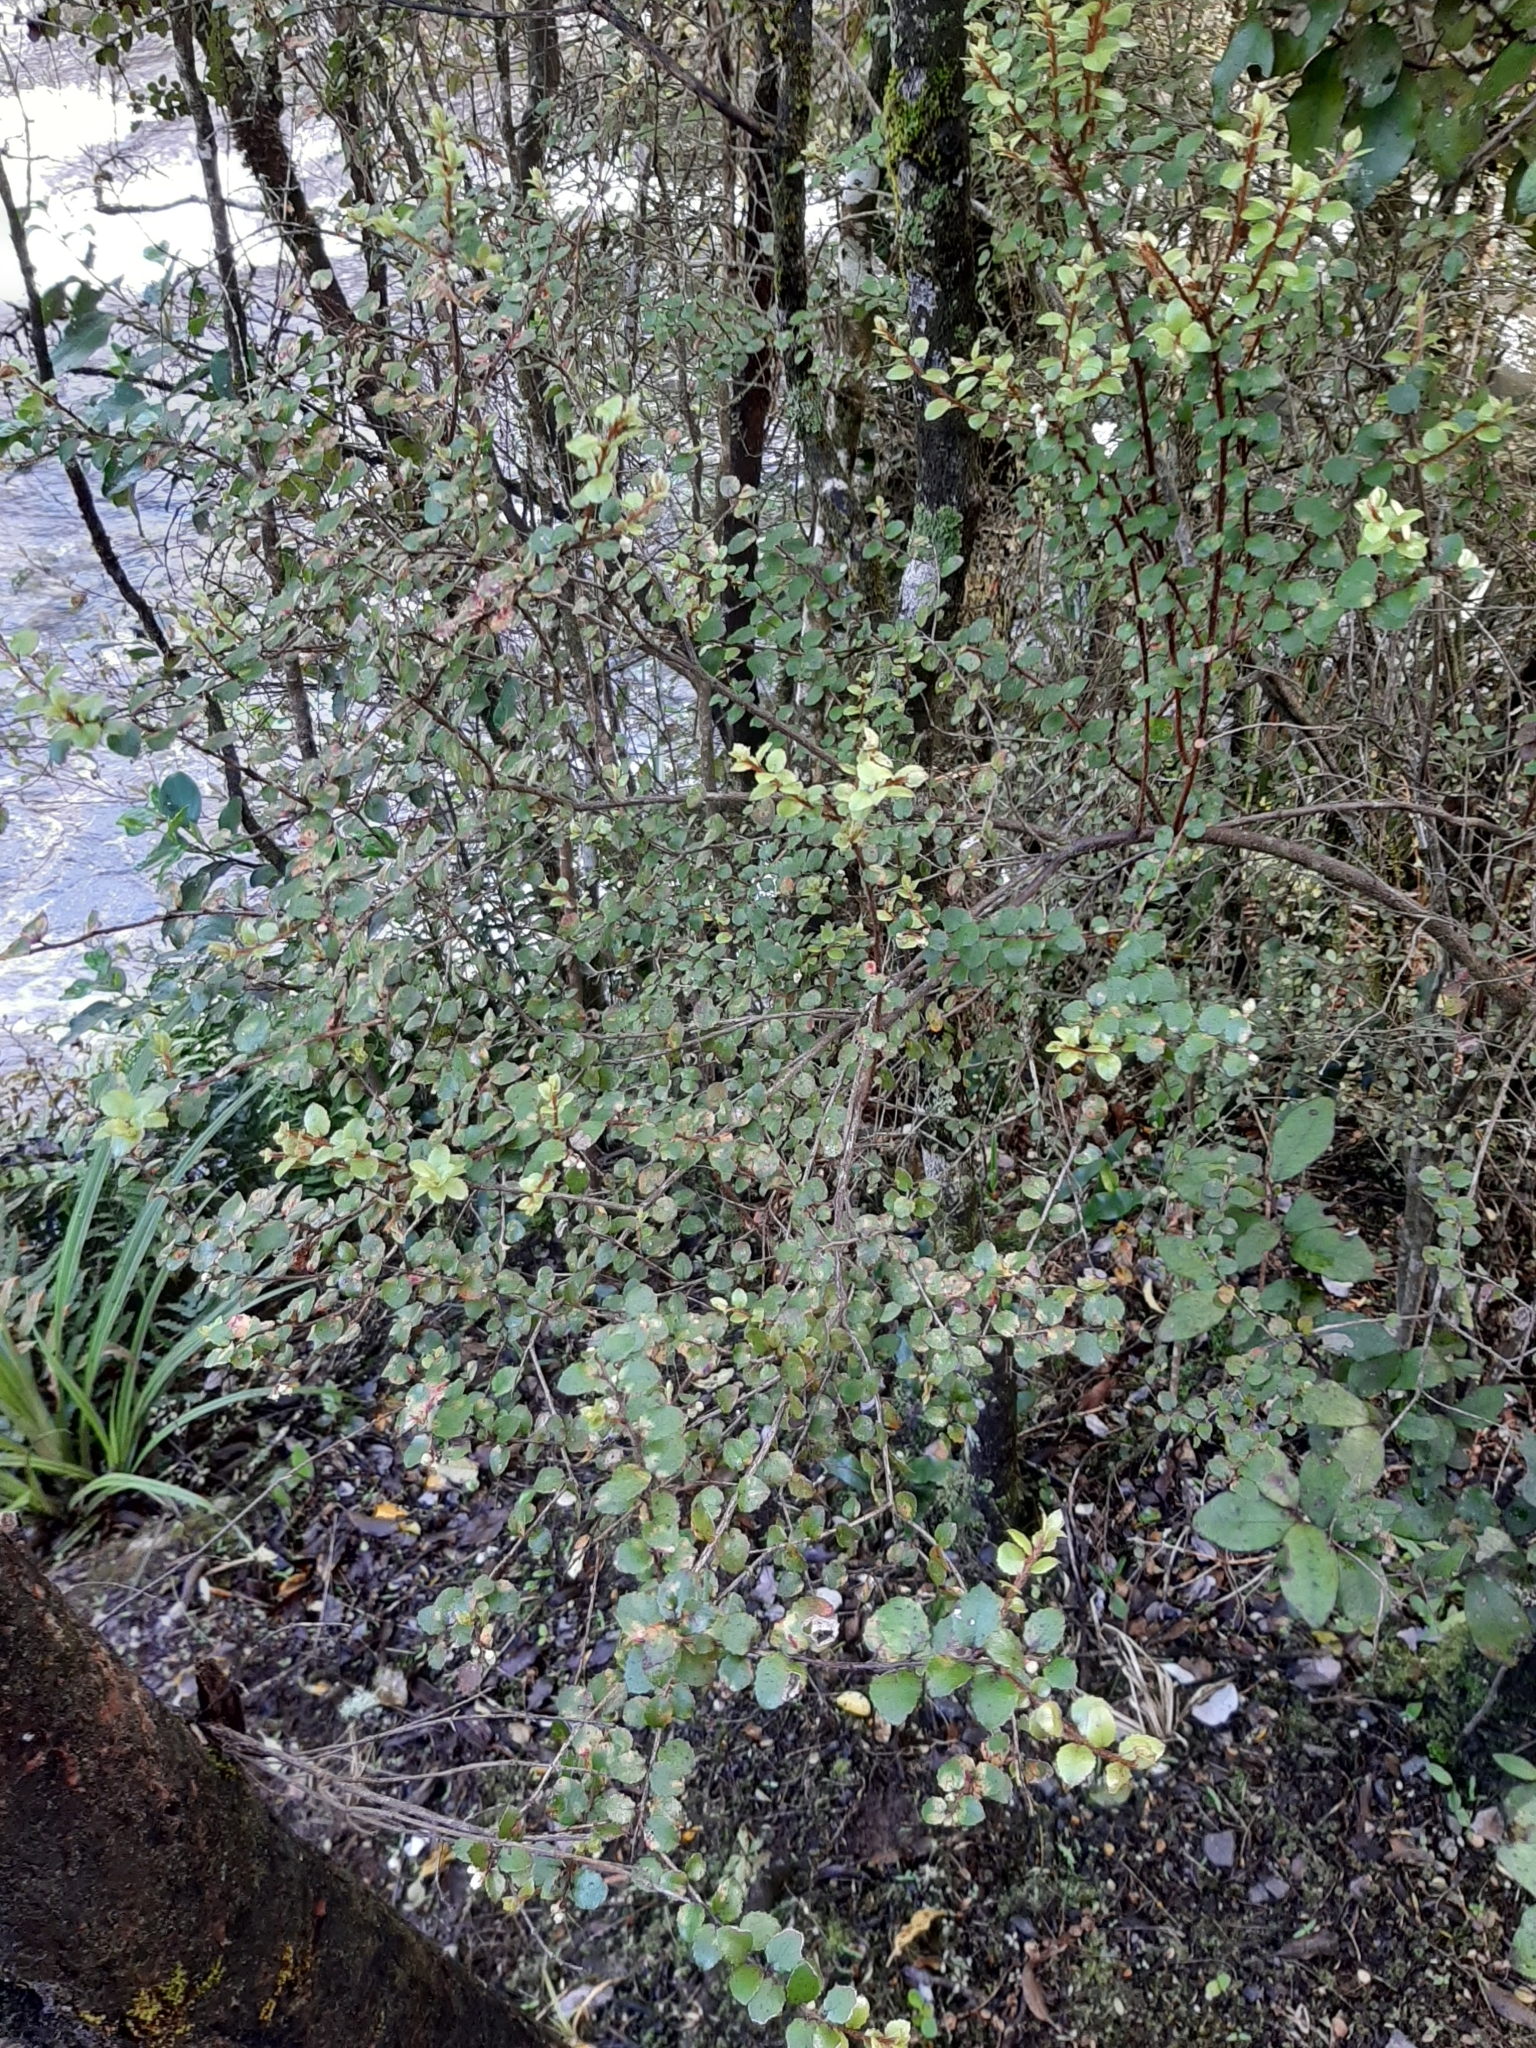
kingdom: Plantae
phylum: Tracheophyta
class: Magnoliopsida
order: Ericales
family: Ericaceae
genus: Gaultheria
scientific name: Gaultheria antipoda
